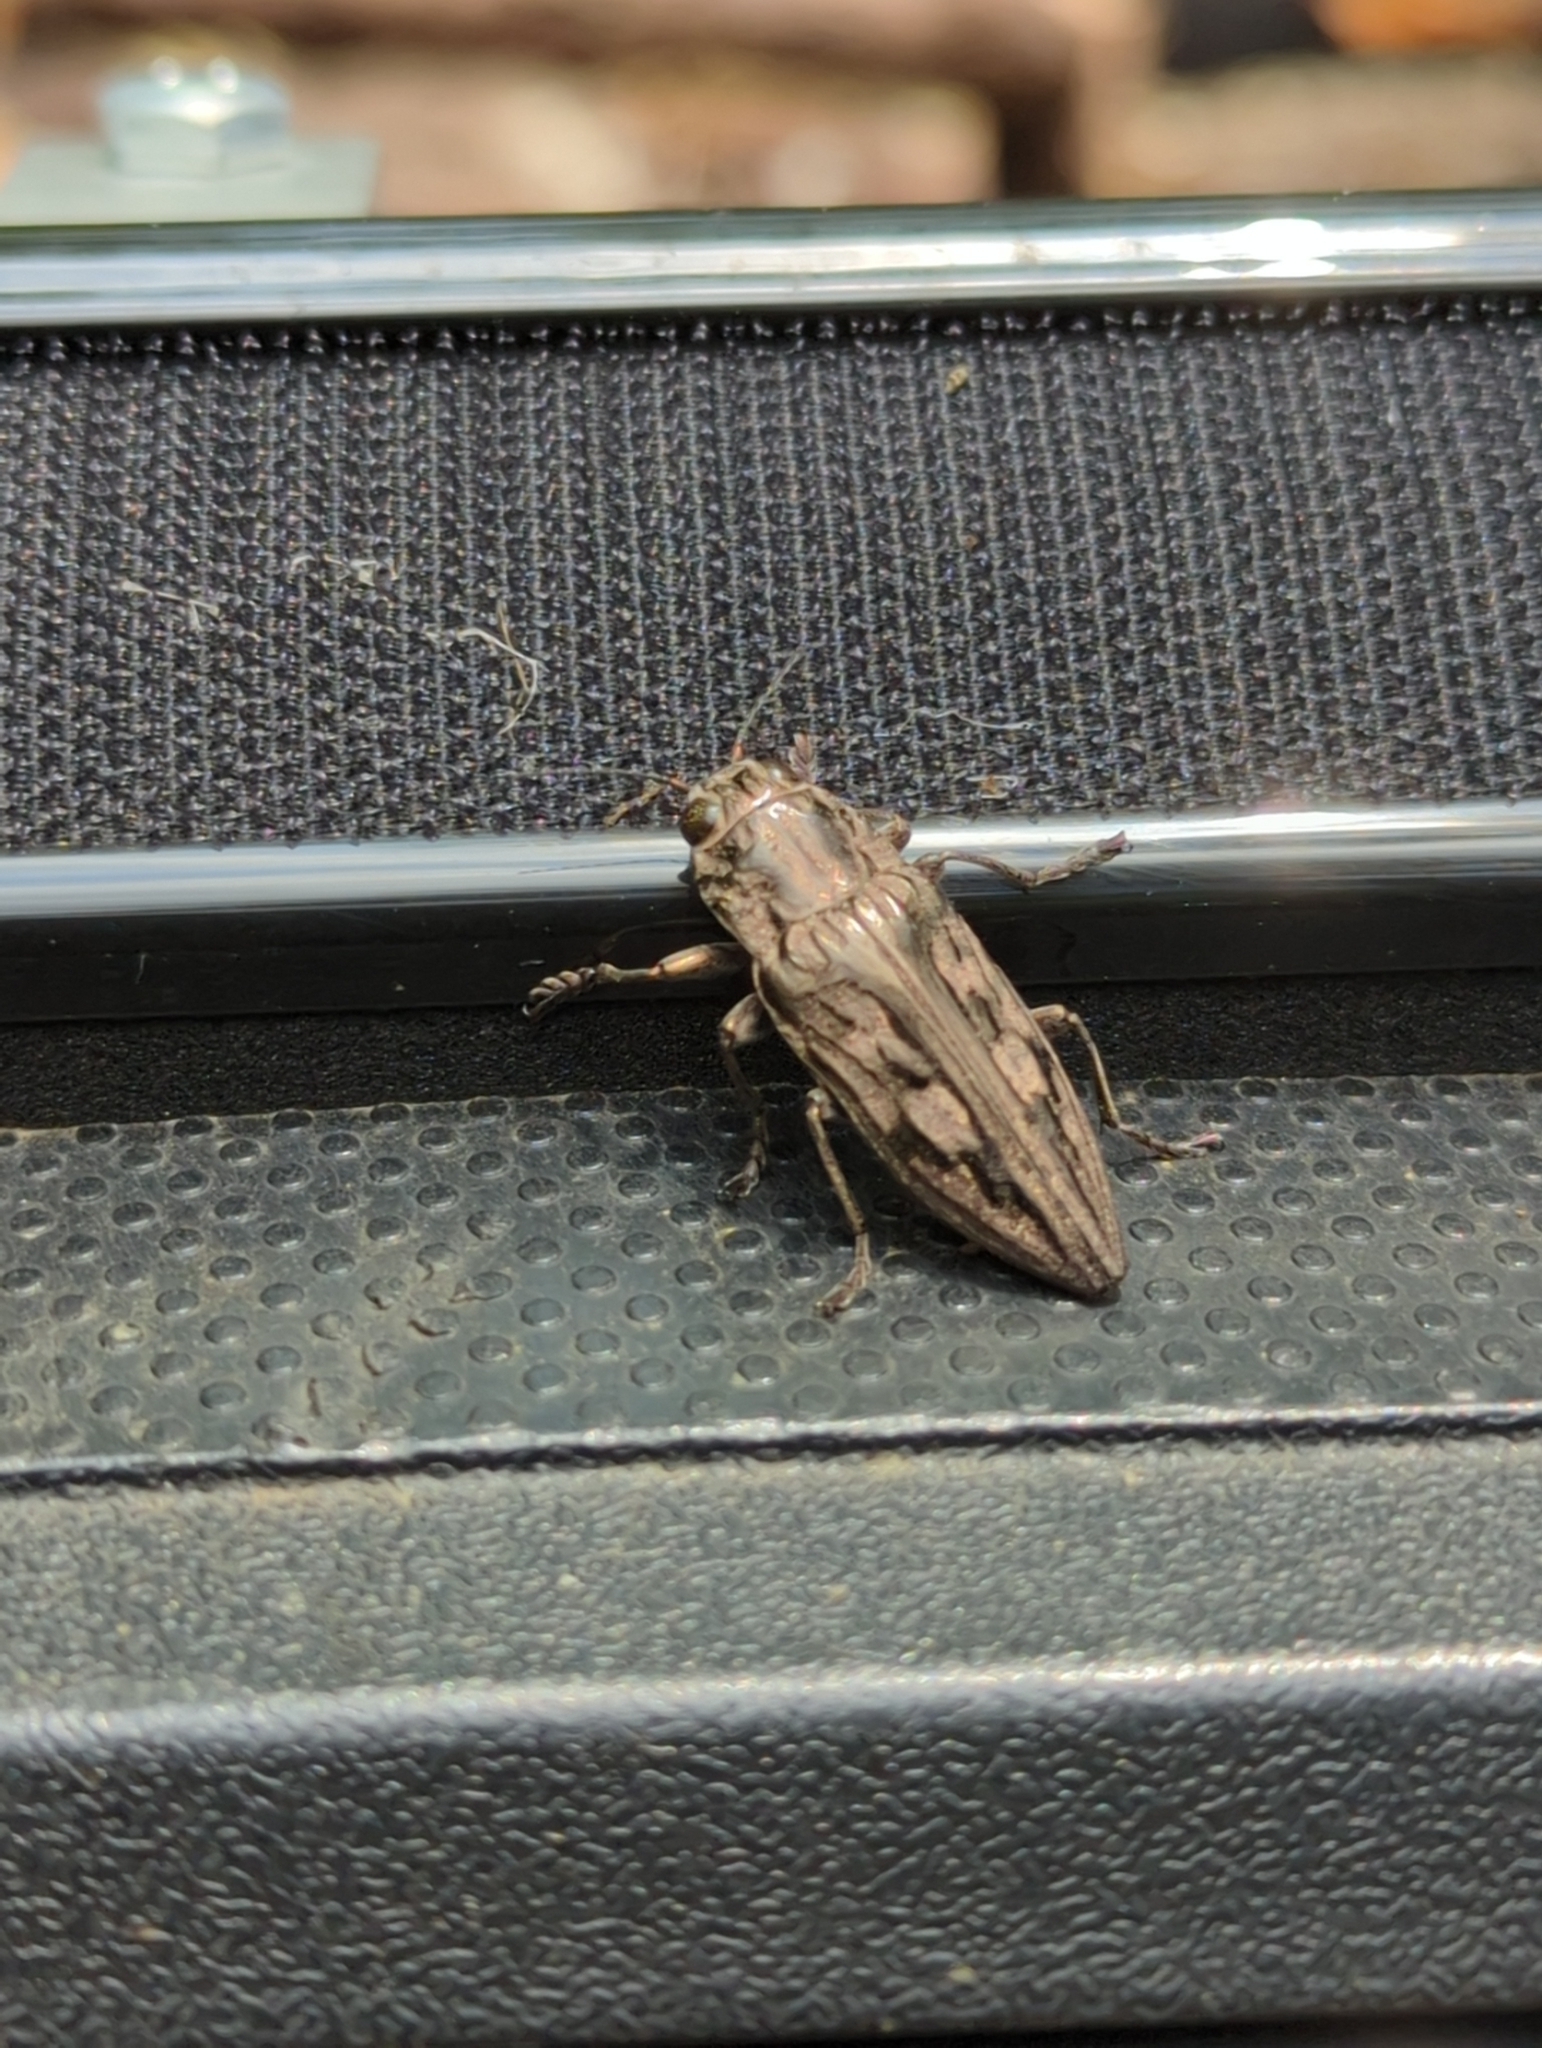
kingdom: Animalia
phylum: Arthropoda
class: Insecta
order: Coleoptera
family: Buprestidae
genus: Chalcophora
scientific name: Chalcophora virginiensis
